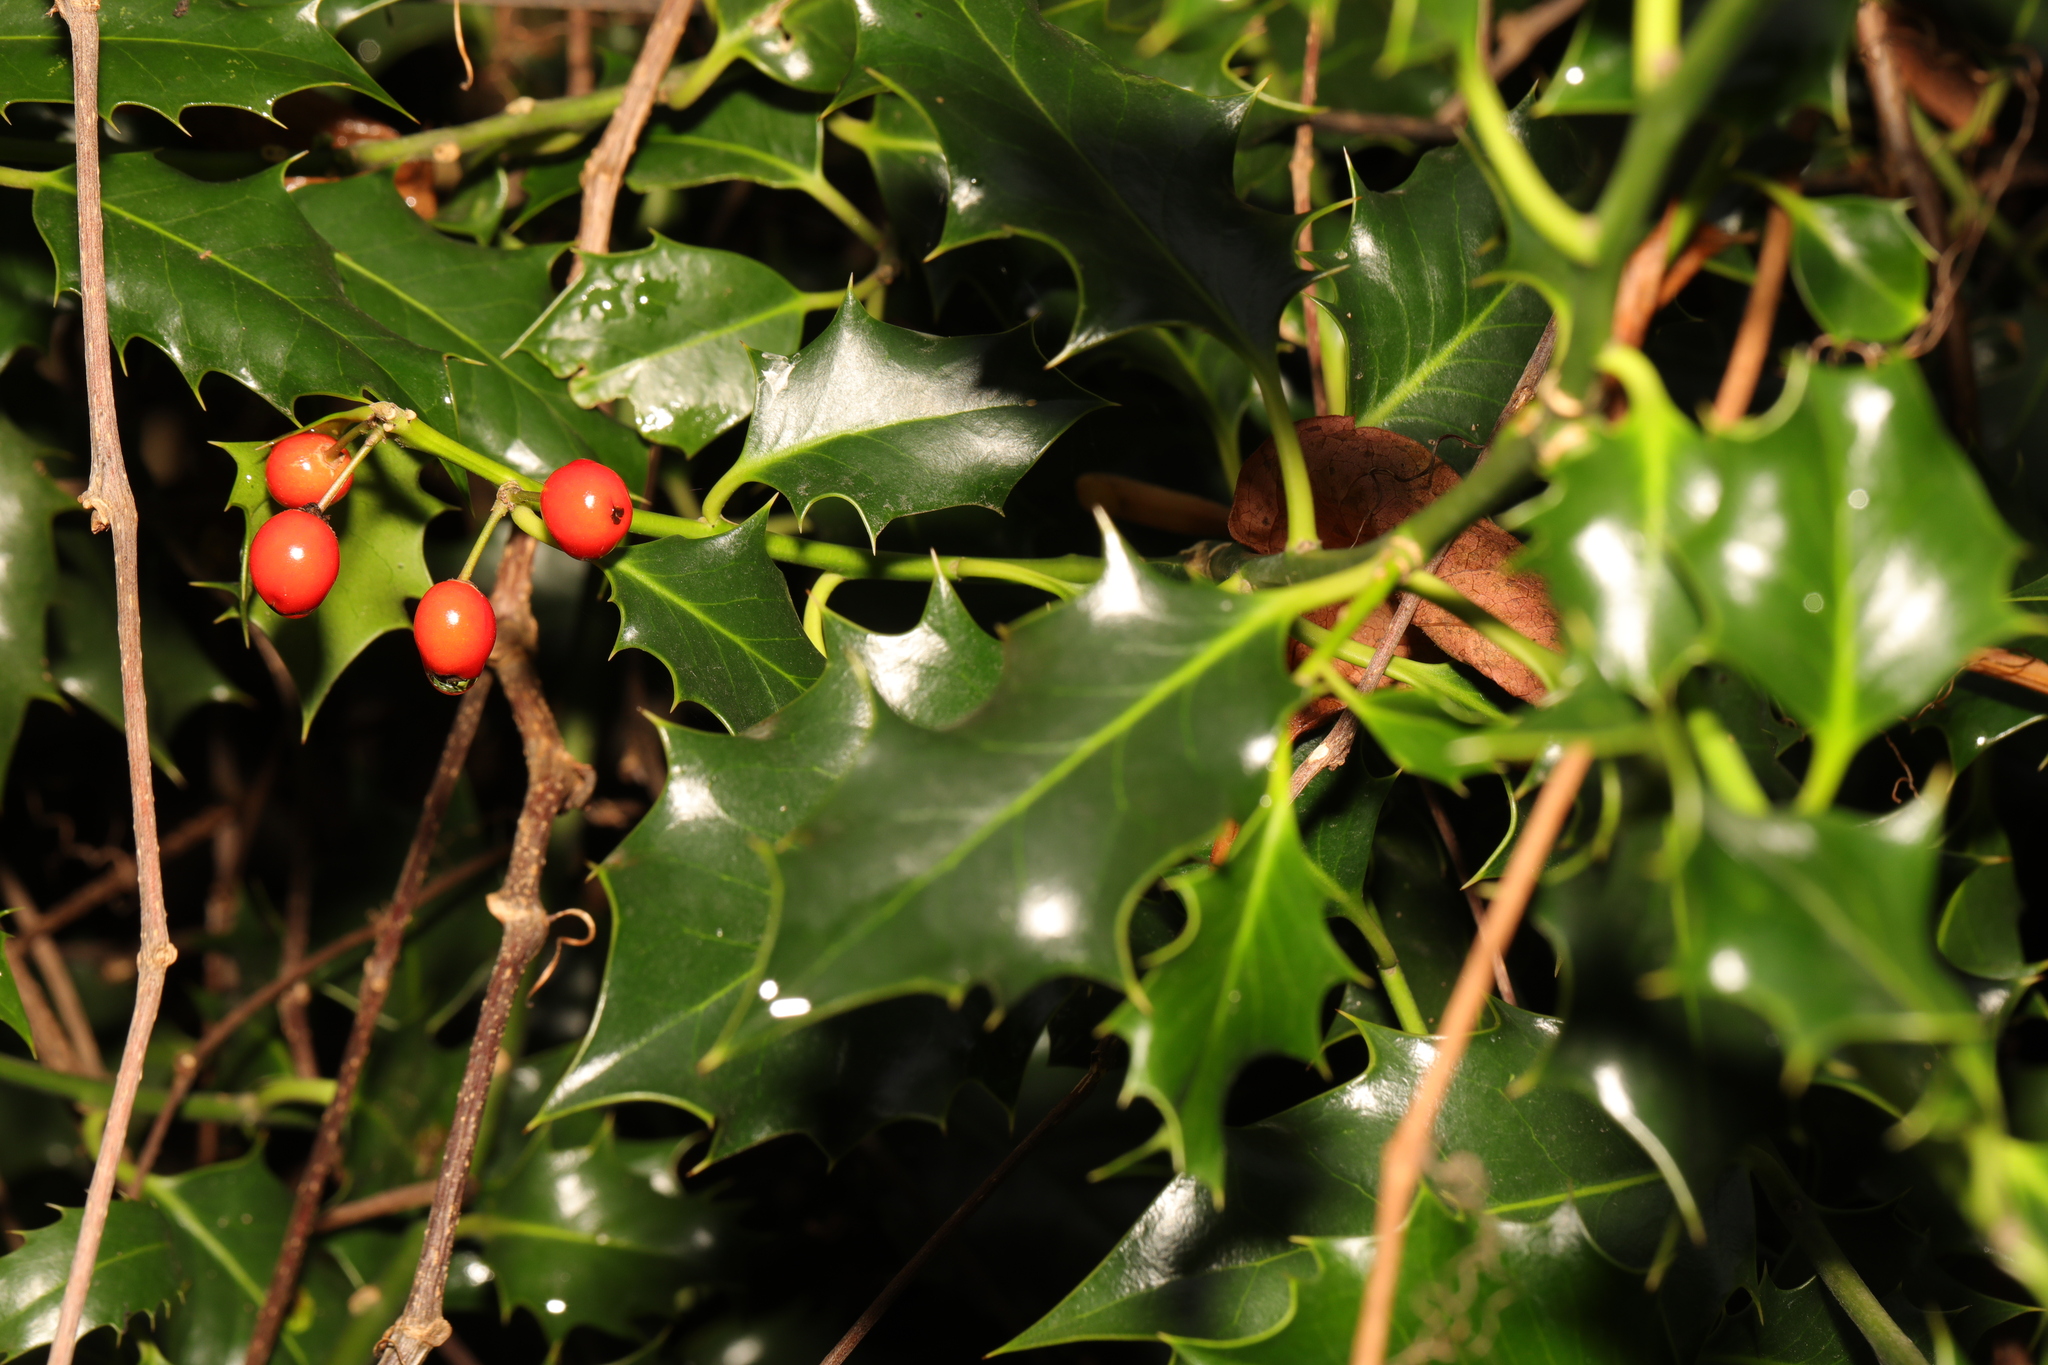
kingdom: Plantae
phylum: Tracheophyta
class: Magnoliopsida
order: Aquifoliales
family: Aquifoliaceae
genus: Ilex
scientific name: Ilex aquifolium
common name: English holly
